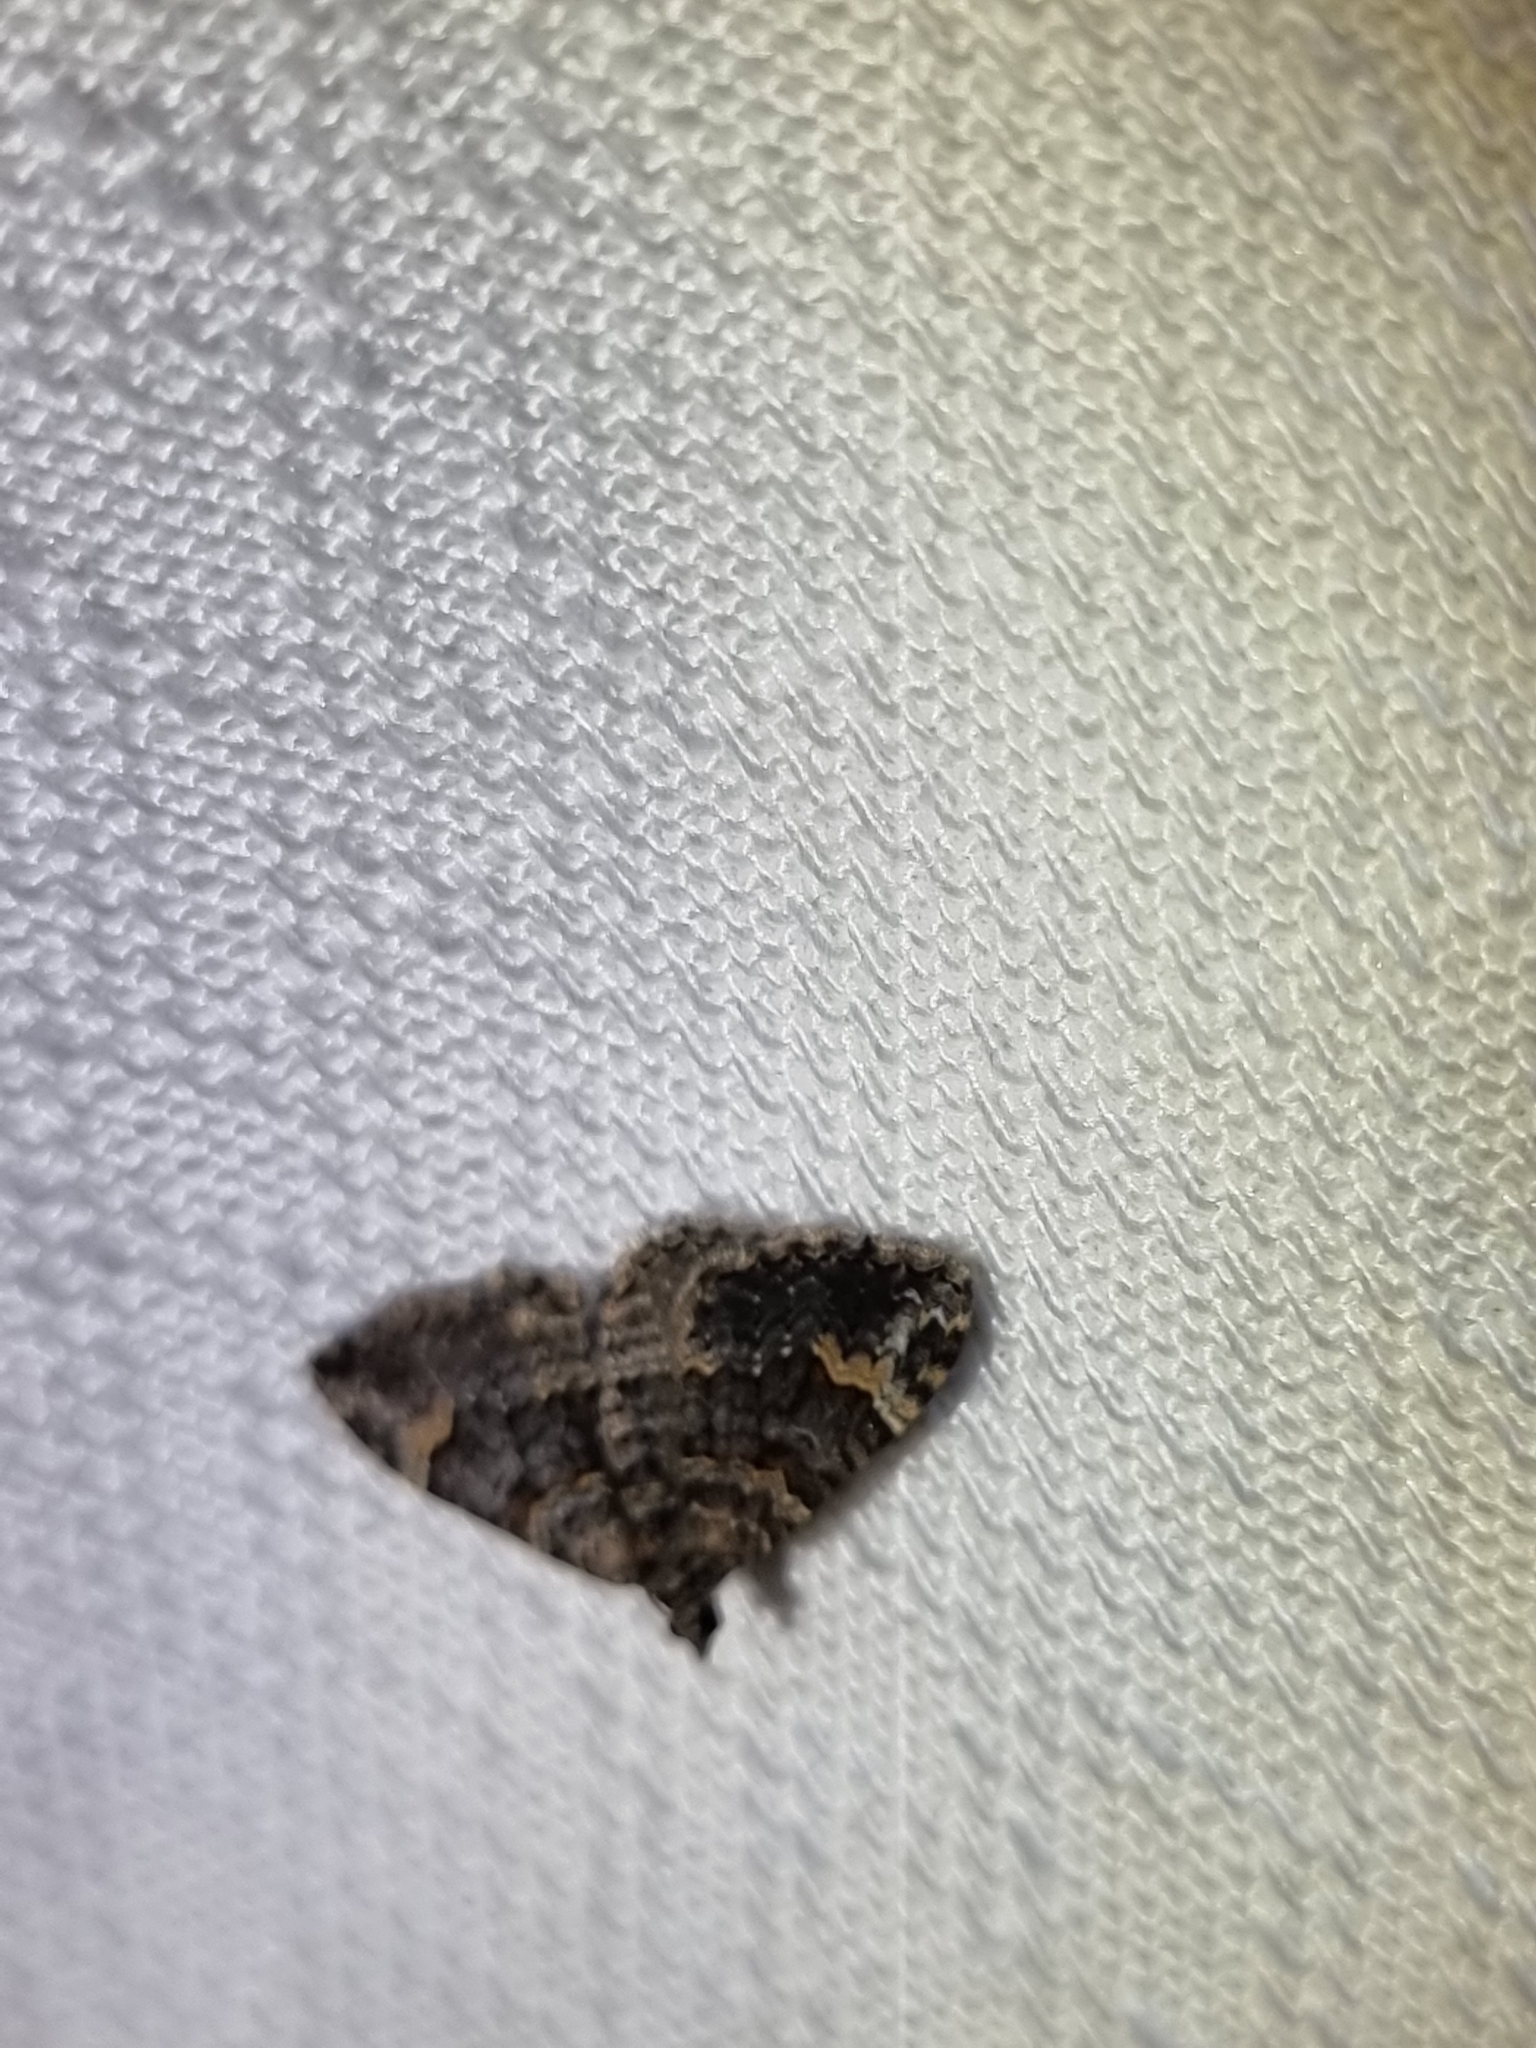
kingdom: Animalia
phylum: Arthropoda
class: Insecta
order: Lepidoptera
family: Geometridae
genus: Epyaxa
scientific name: Epyaxa sodaliata
